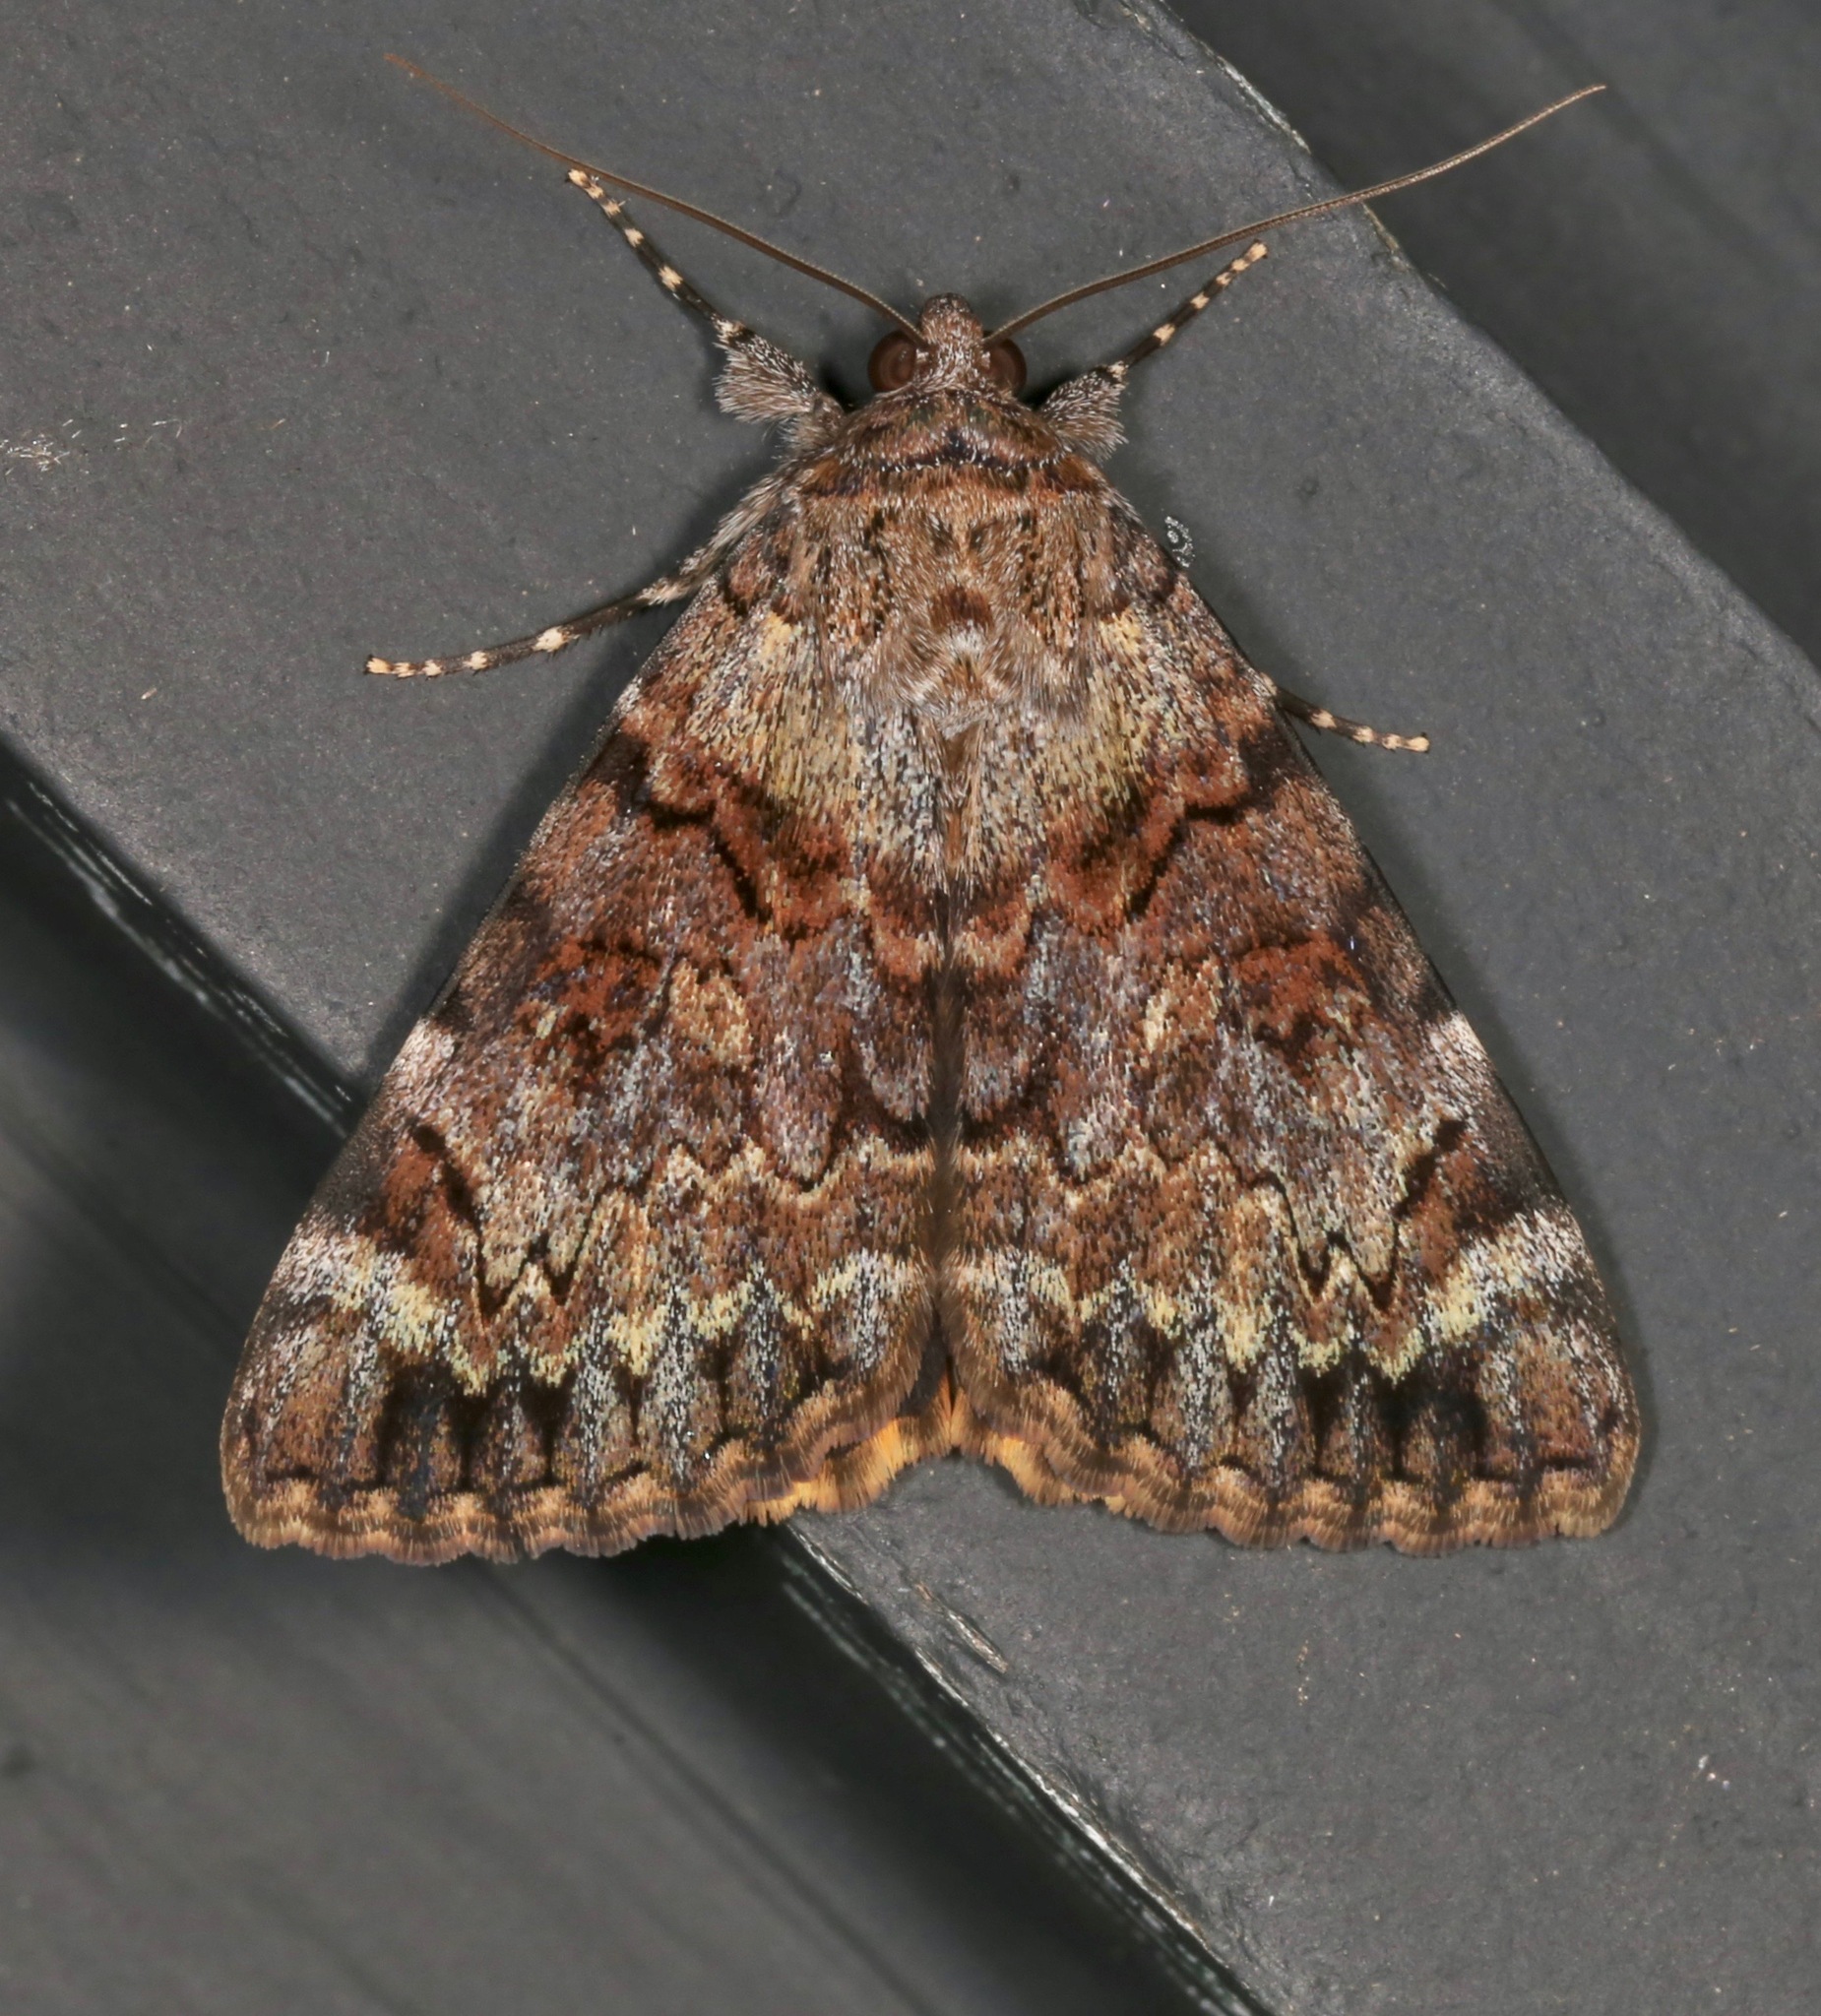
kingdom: Animalia
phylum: Arthropoda
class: Insecta
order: Lepidoptera
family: Erebidae
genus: Catocala
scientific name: Catocala desdemona
